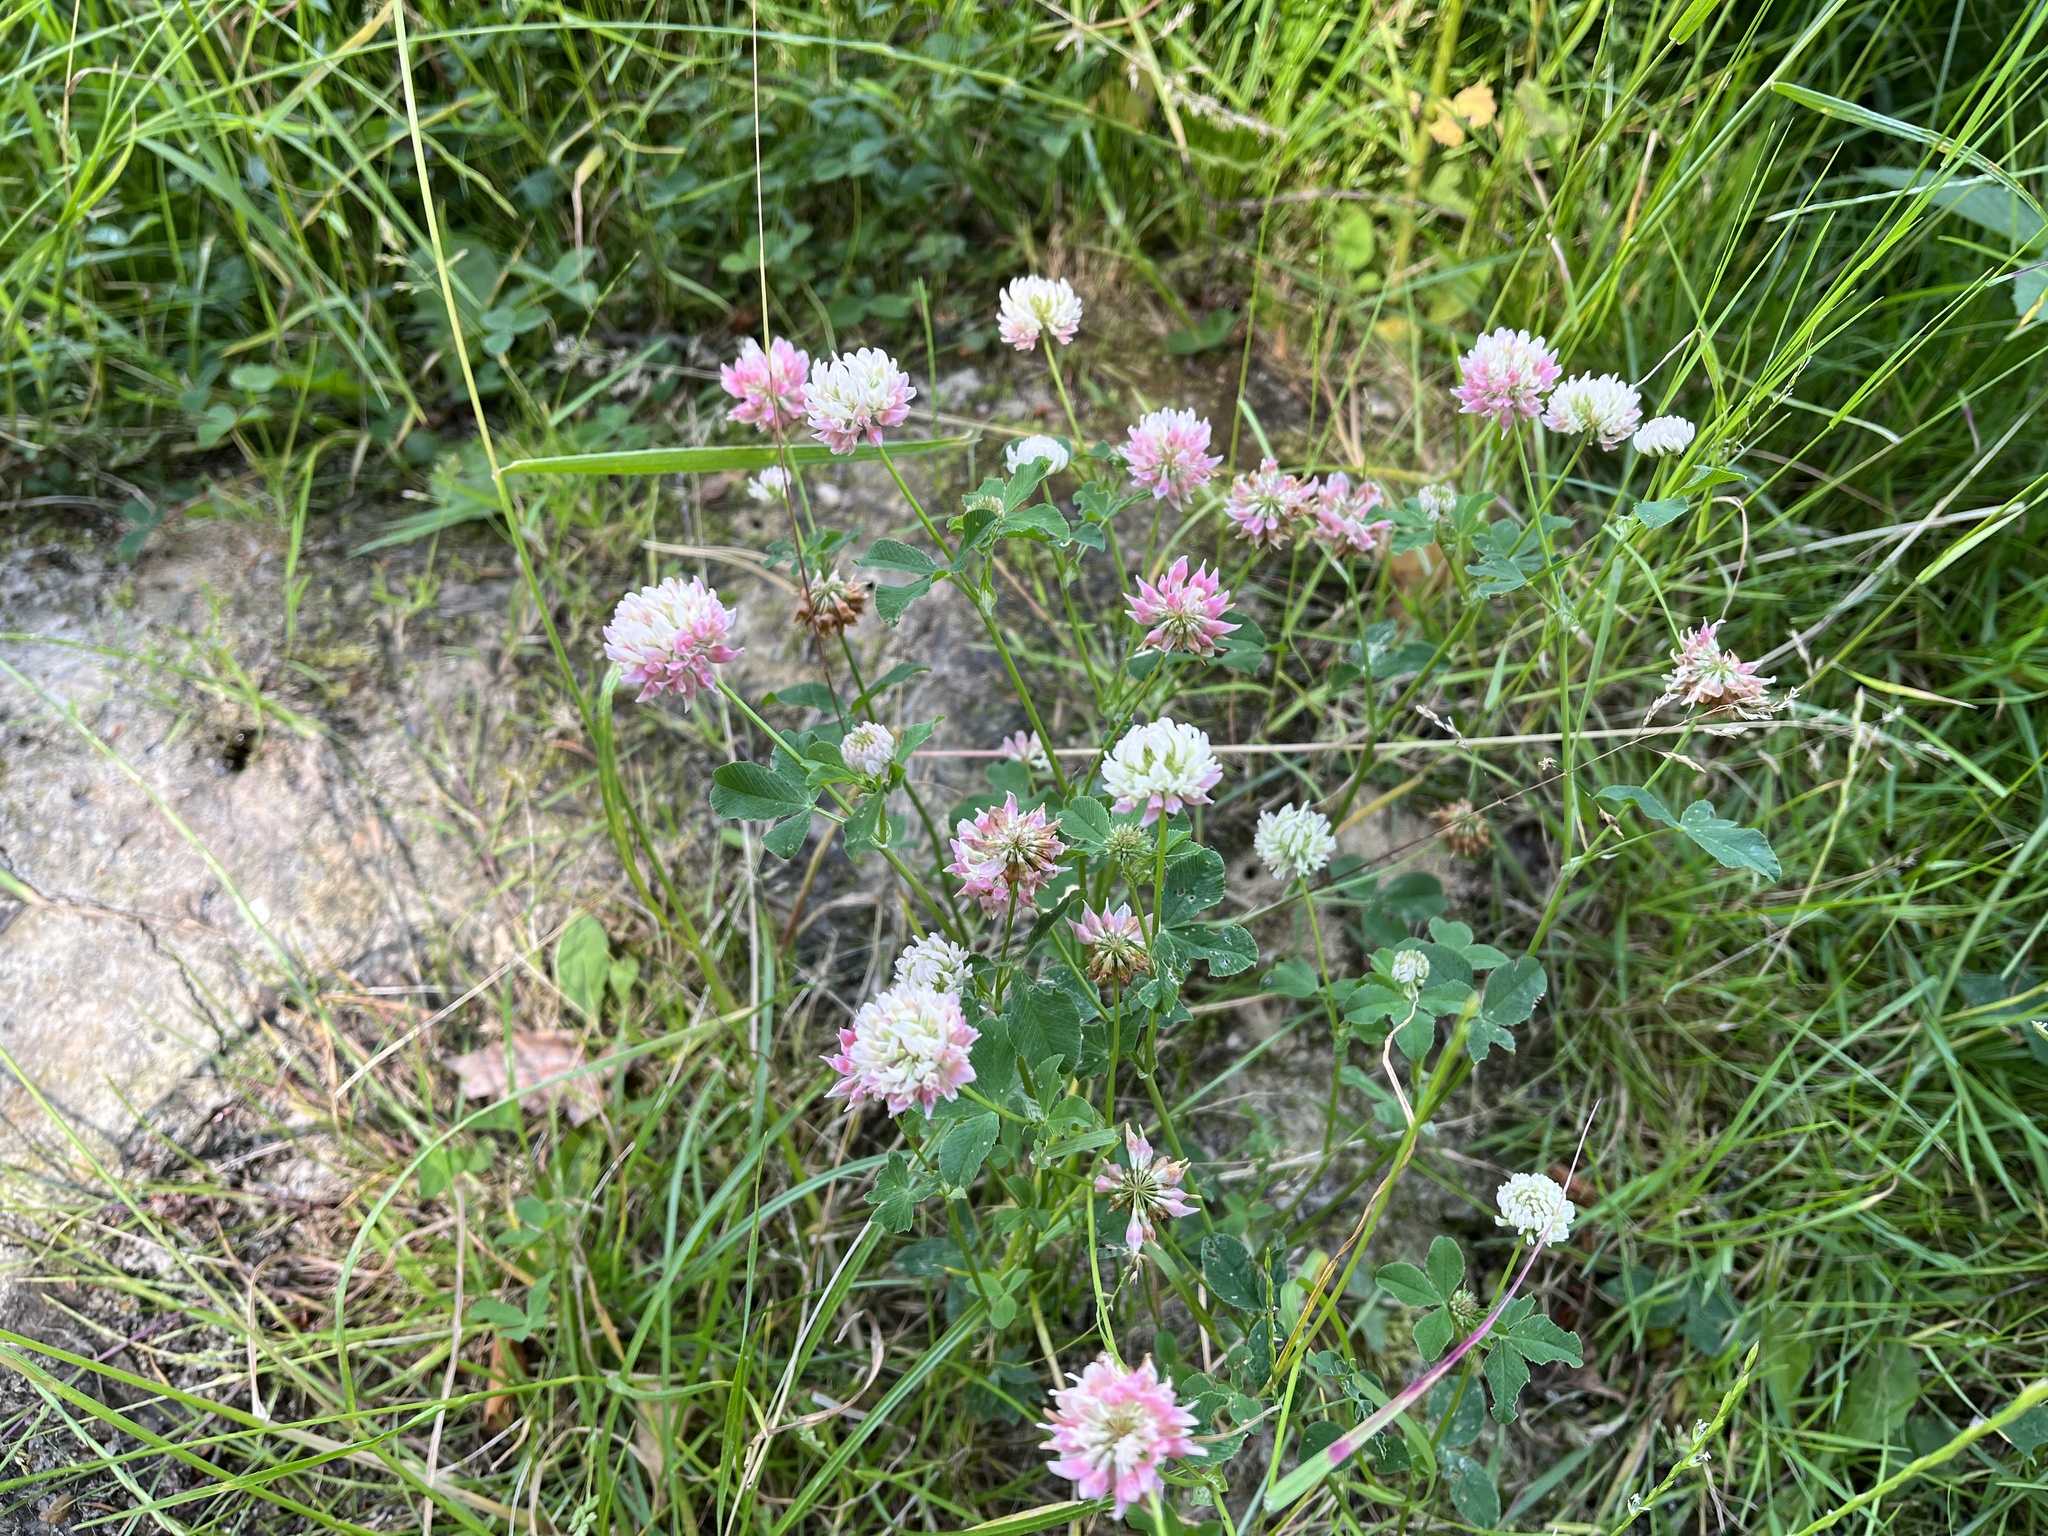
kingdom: Plantae
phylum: Tracheophyta
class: Magnoliopsida
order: Fabales
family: Fabaceae
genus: Trifolium
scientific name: Trifolium hybridum
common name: Alsike clover
